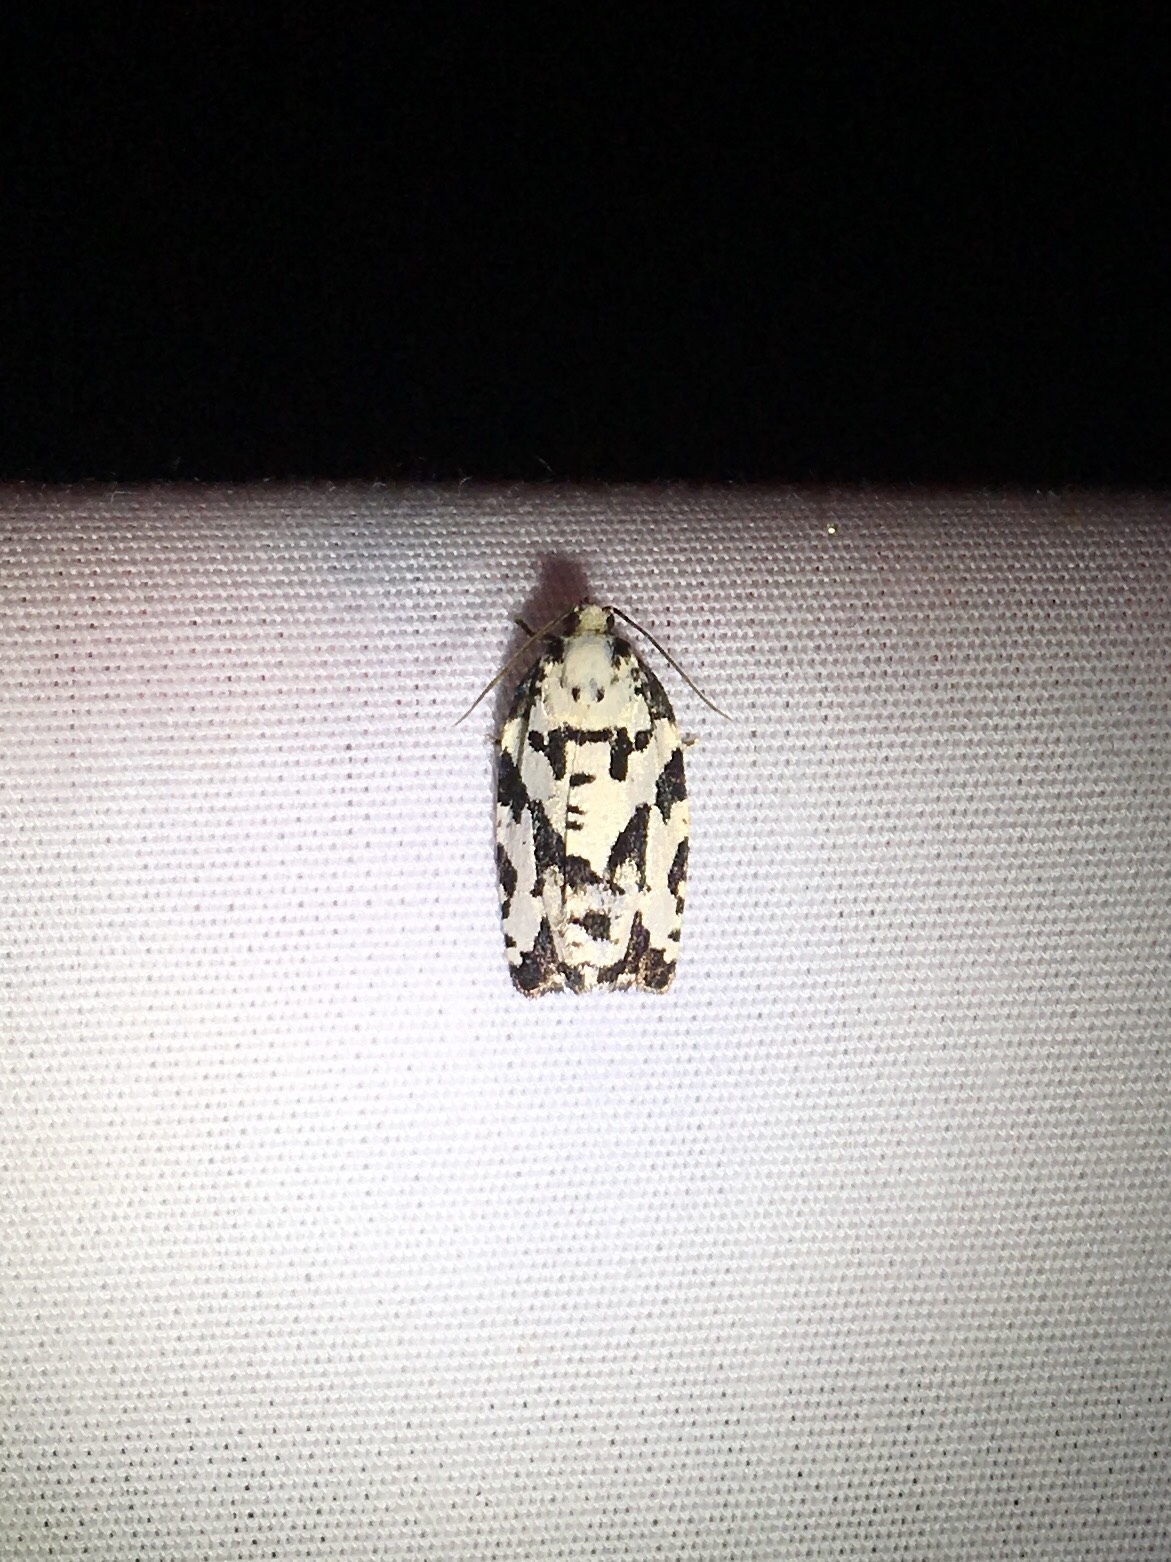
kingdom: Animalia
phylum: Arthropoda
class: Insecta
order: Lepidoptera
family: Tortricidae
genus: Archips
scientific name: Archips dissitana
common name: Boldly-marked archips moth
